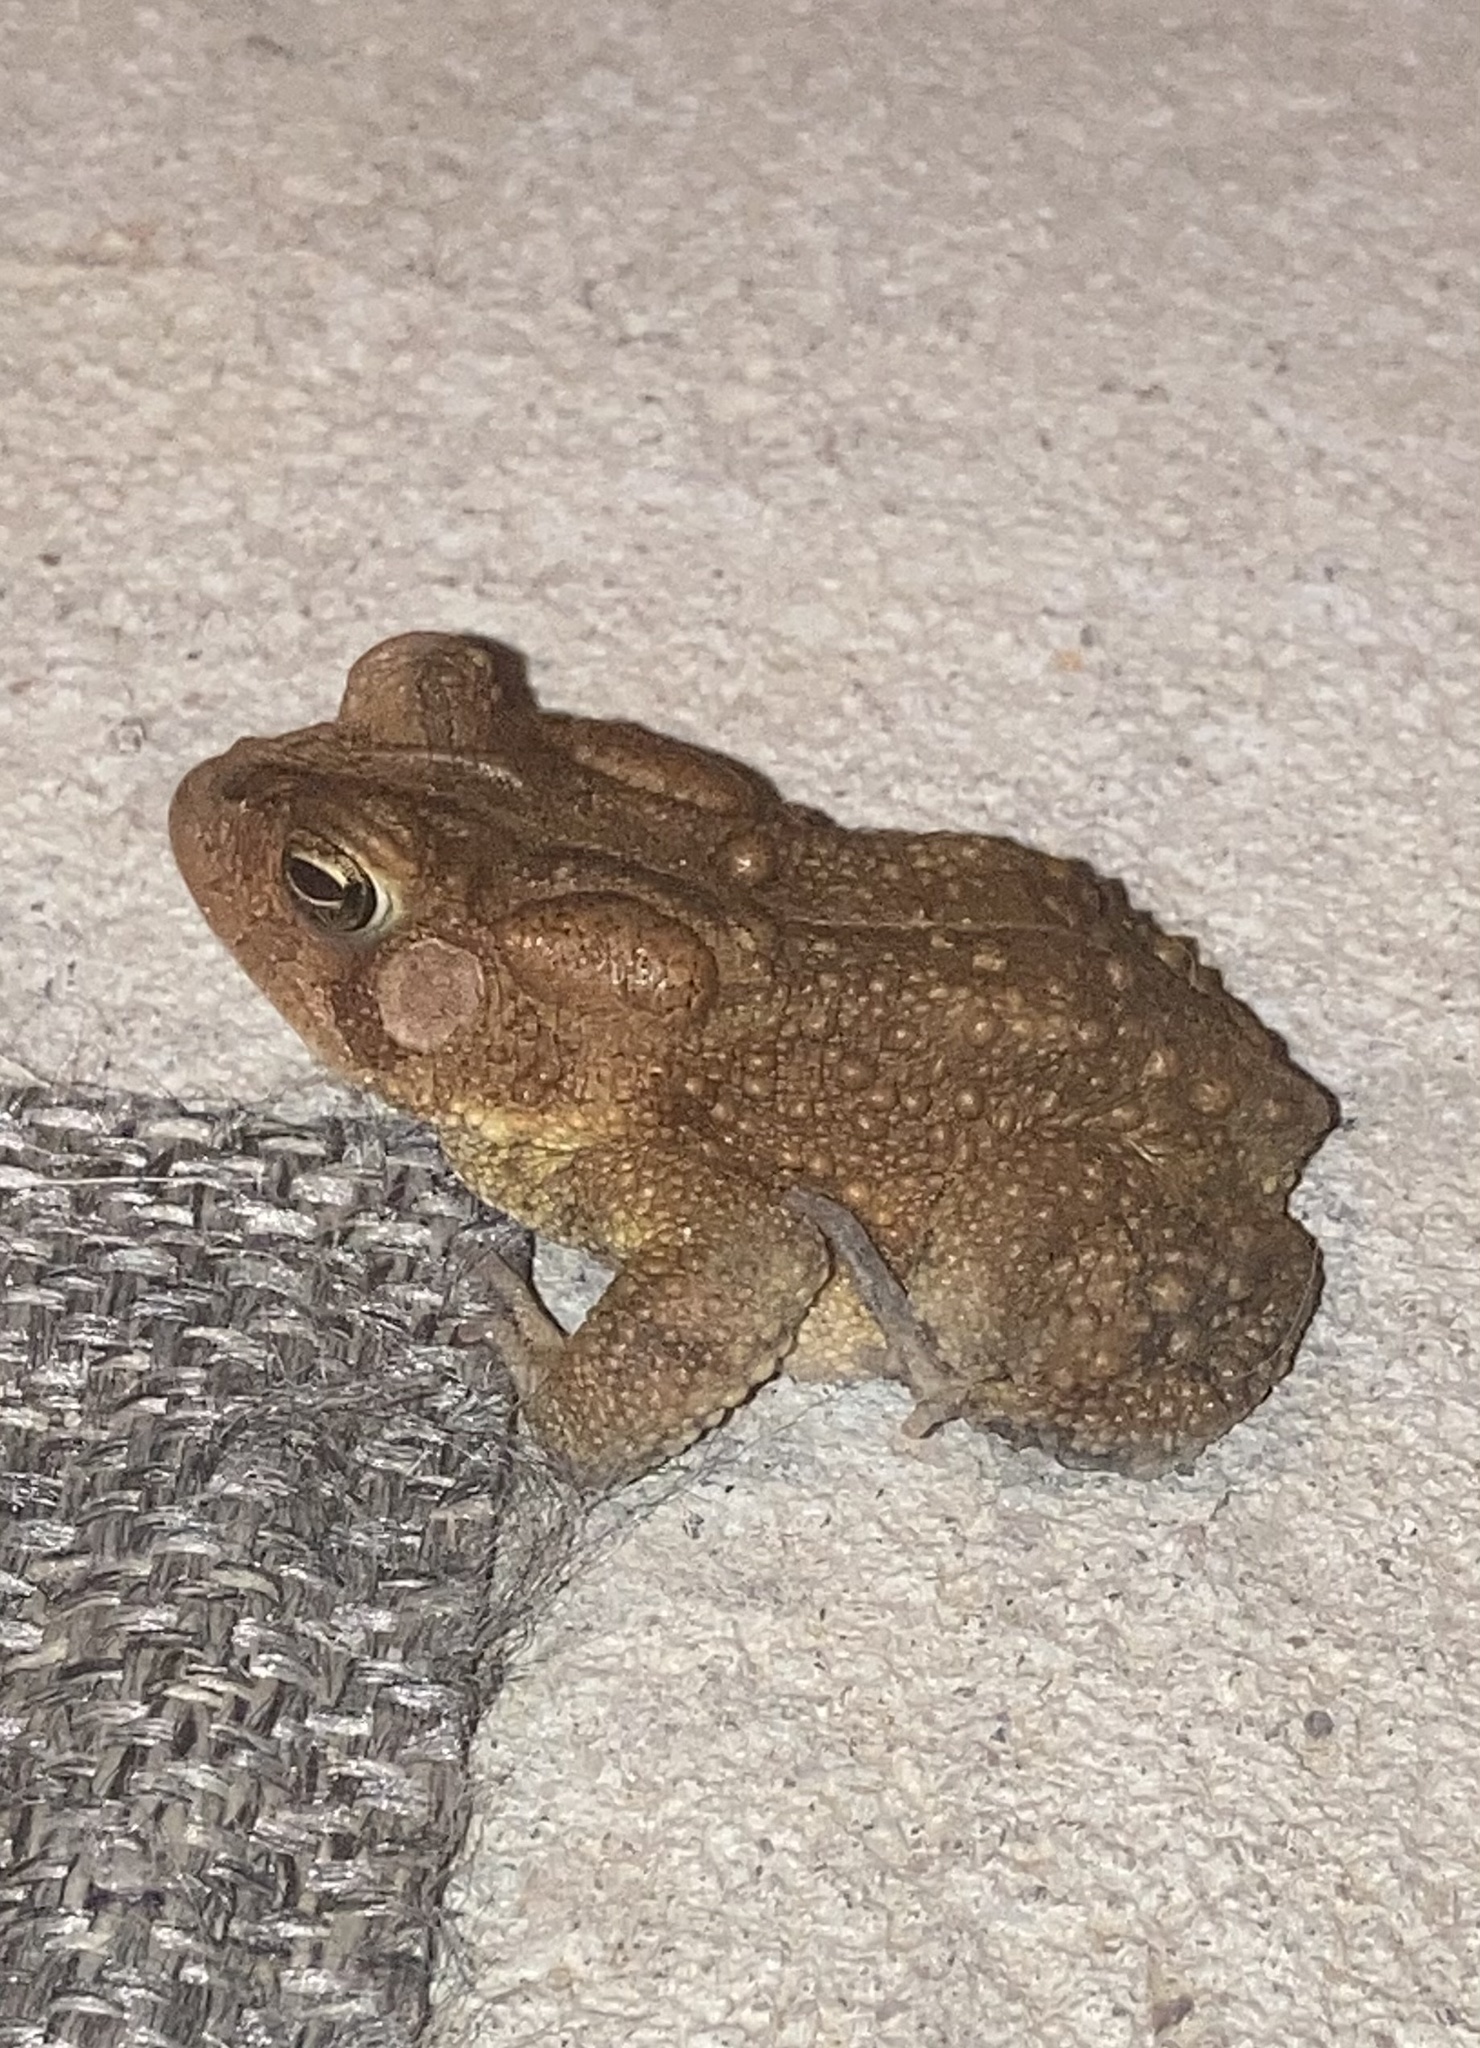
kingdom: Animalia
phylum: Chordata
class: Amphibia
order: Anura
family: Bufonidae
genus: Anaxyrus
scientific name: Anaxyrus americanus
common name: American toad
